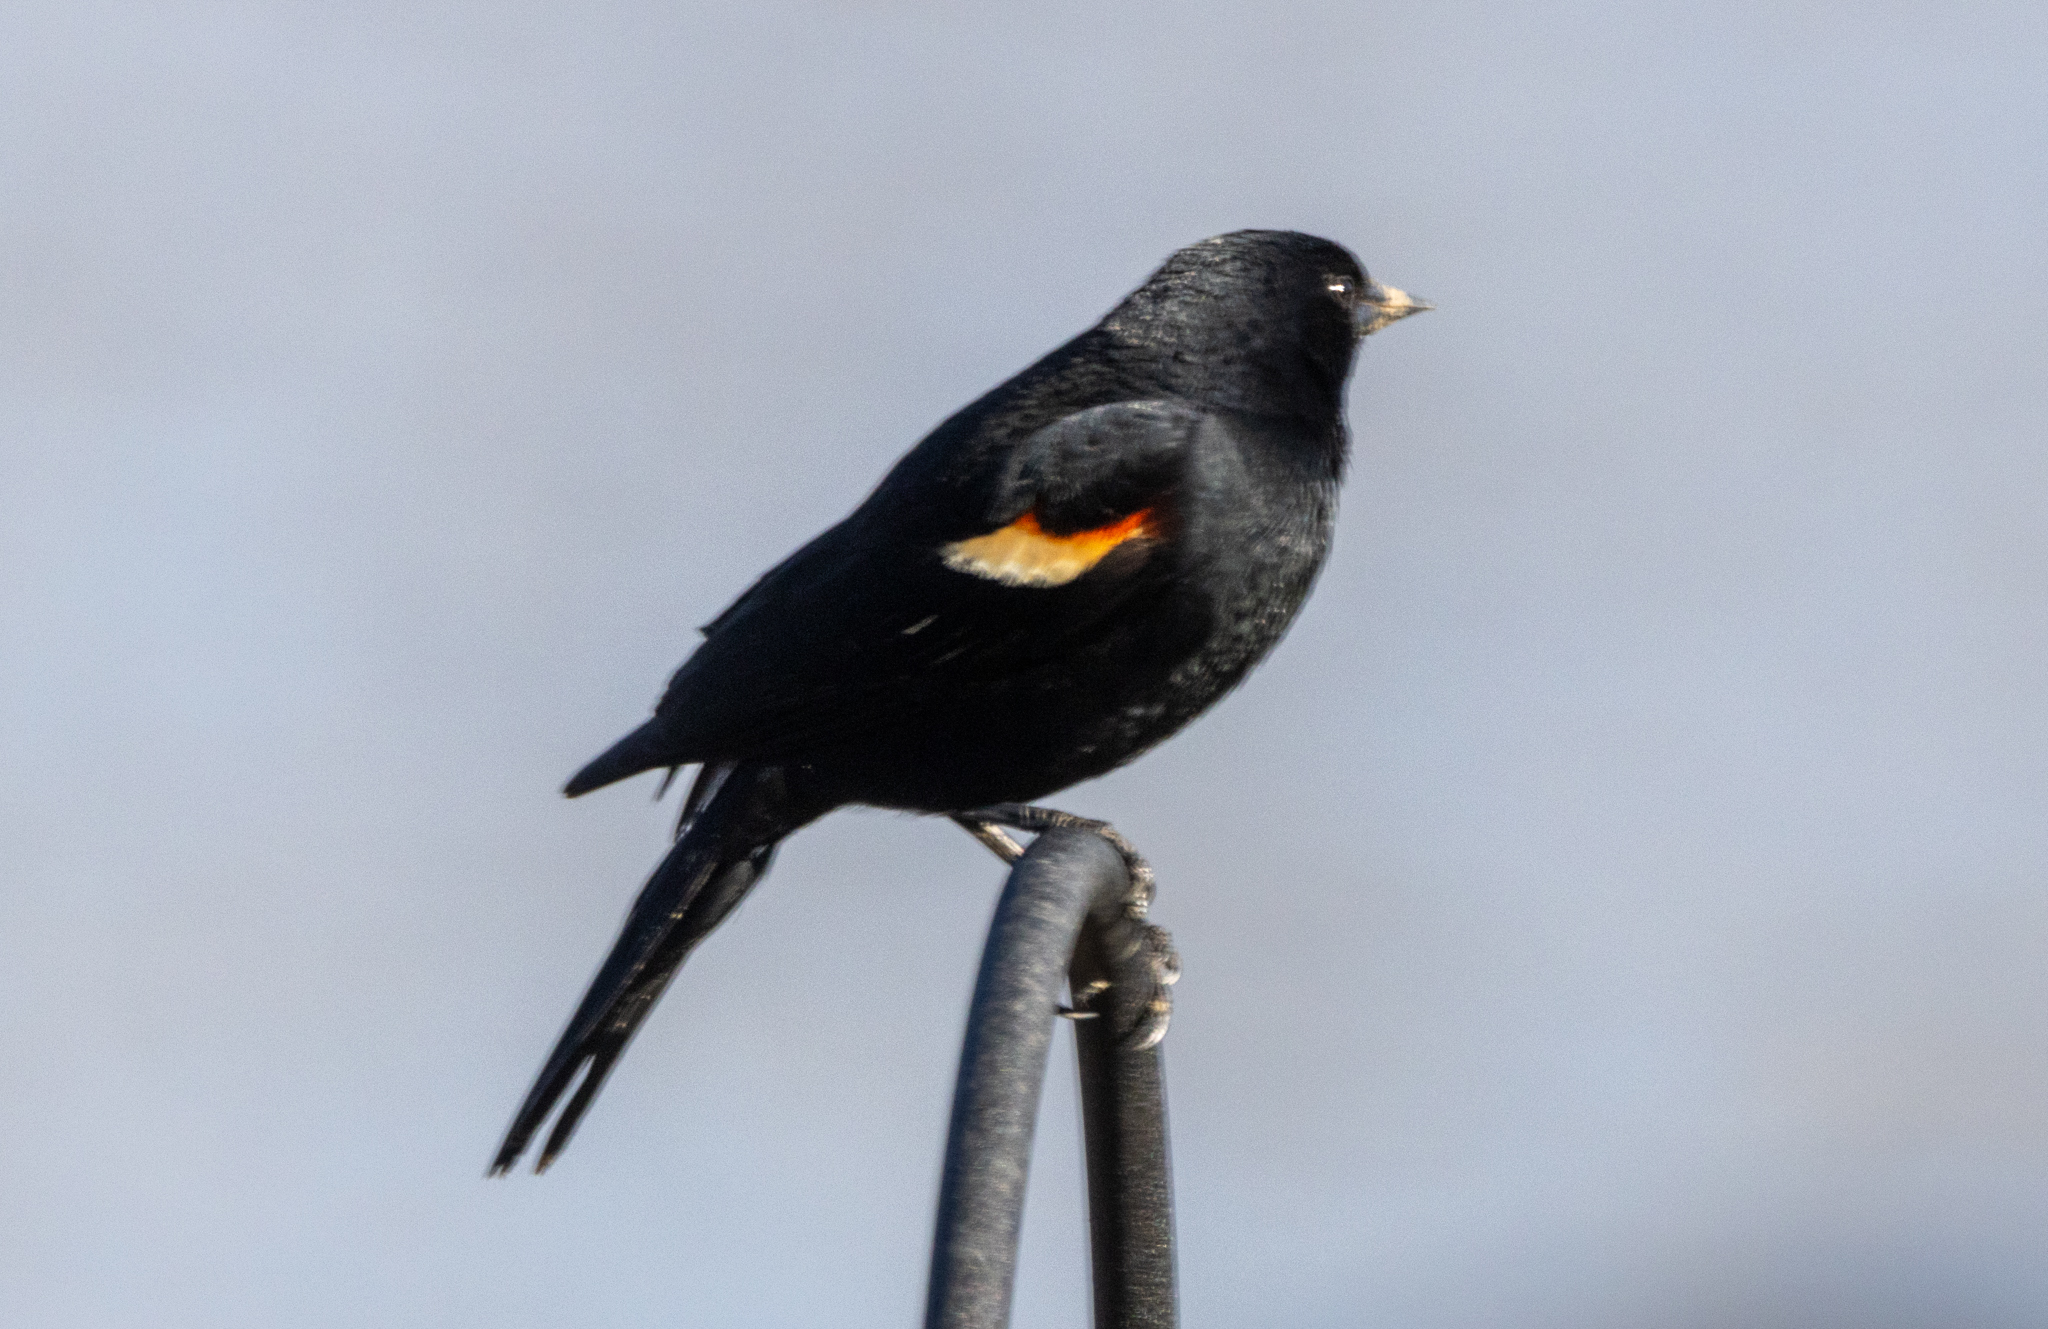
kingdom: Animalia
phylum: Chordata
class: Aves
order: Passeriformes
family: Icteridae
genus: Agelaius
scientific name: Agelaius phoeniceus
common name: Red-winged blackbird
